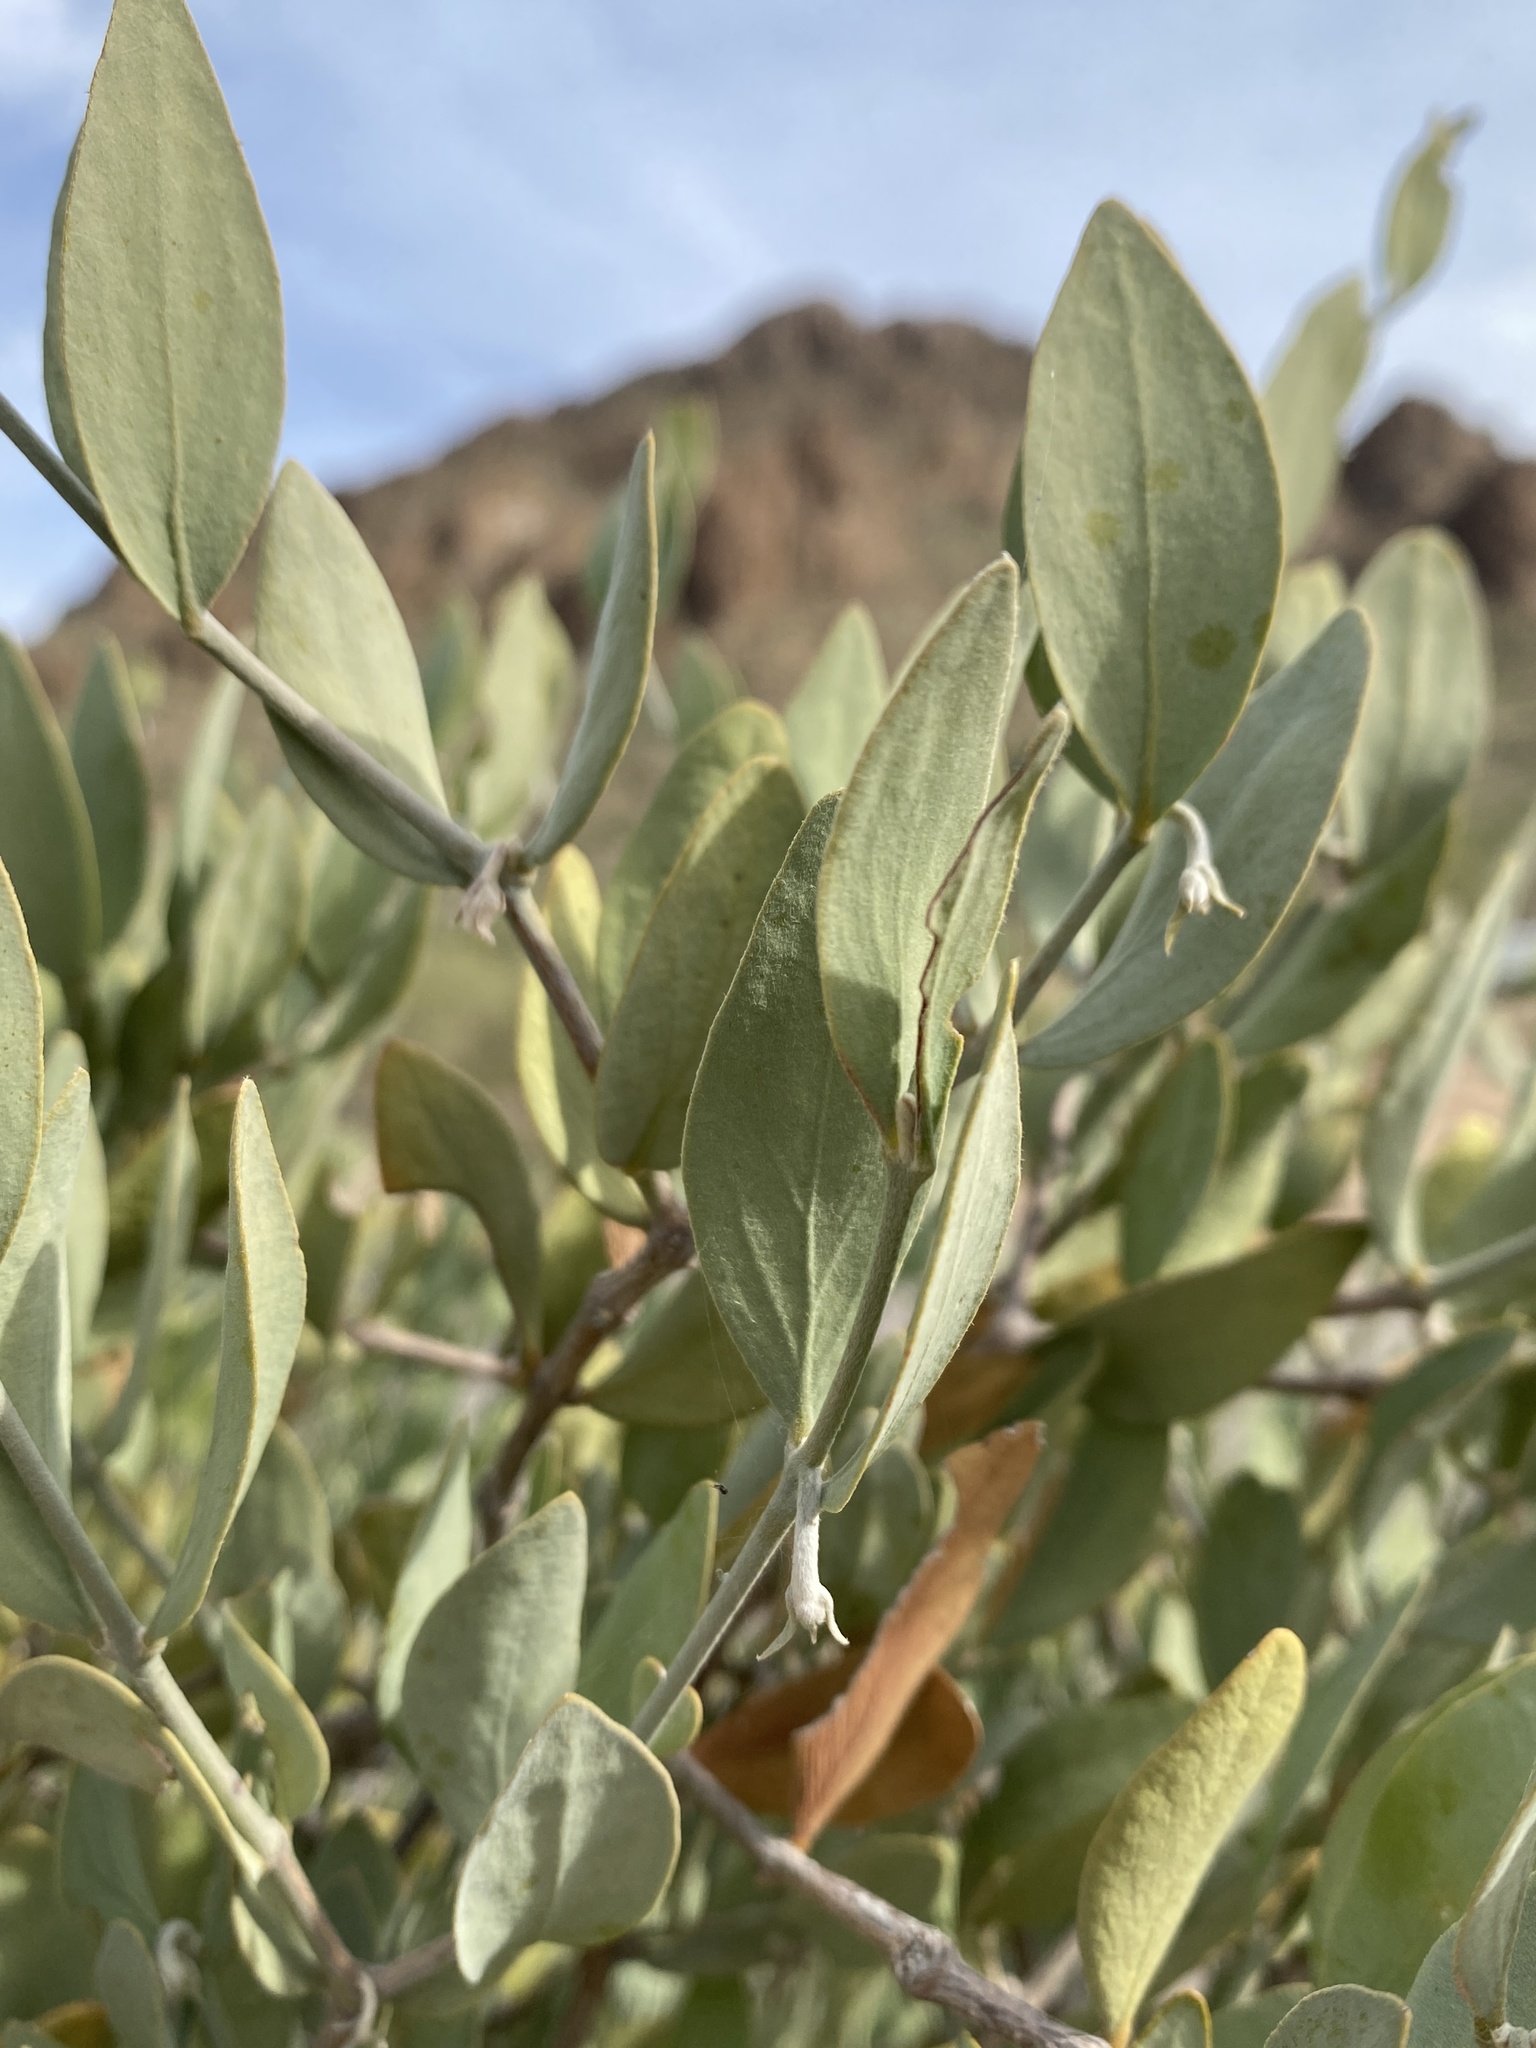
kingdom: Plantae
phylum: Tracheophyta
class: Magnoliopsida
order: Caryophyllales
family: Simmondsiaceae
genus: Simmondsia
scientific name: Simmondsia chinensis
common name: Jojoba
